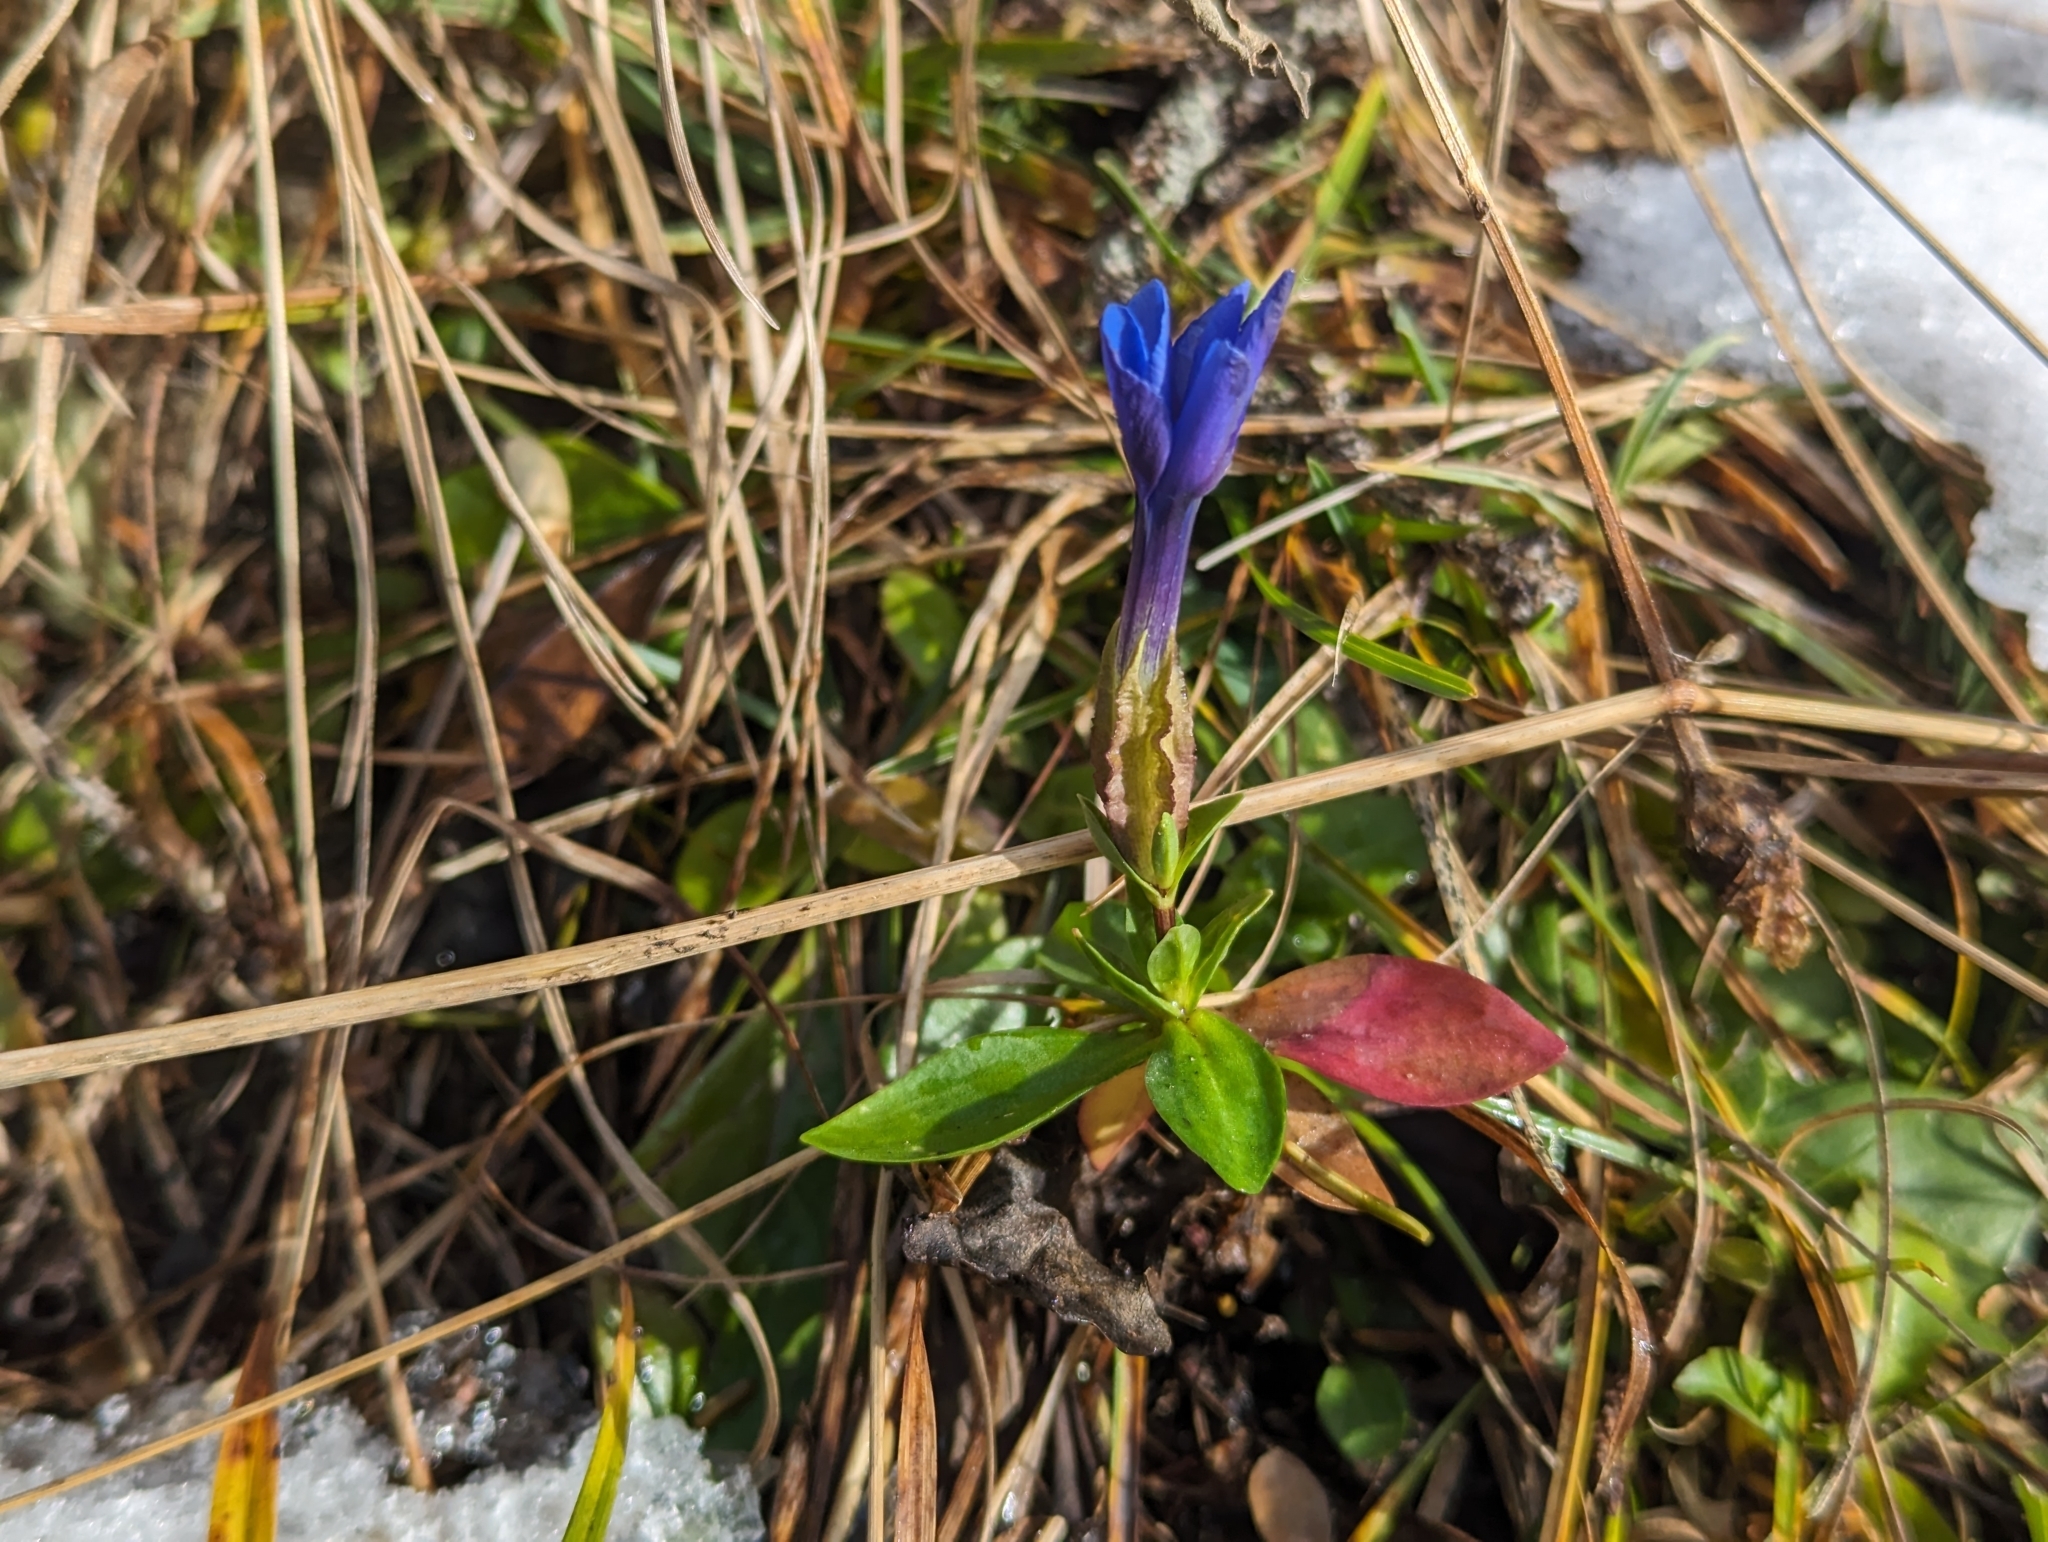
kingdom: Plantae
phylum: Tracheophyta
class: Magnoliopsida
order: Gentianales
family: Gentianaceae
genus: Gentiana
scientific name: Gentiana verna
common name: Spring gentian
